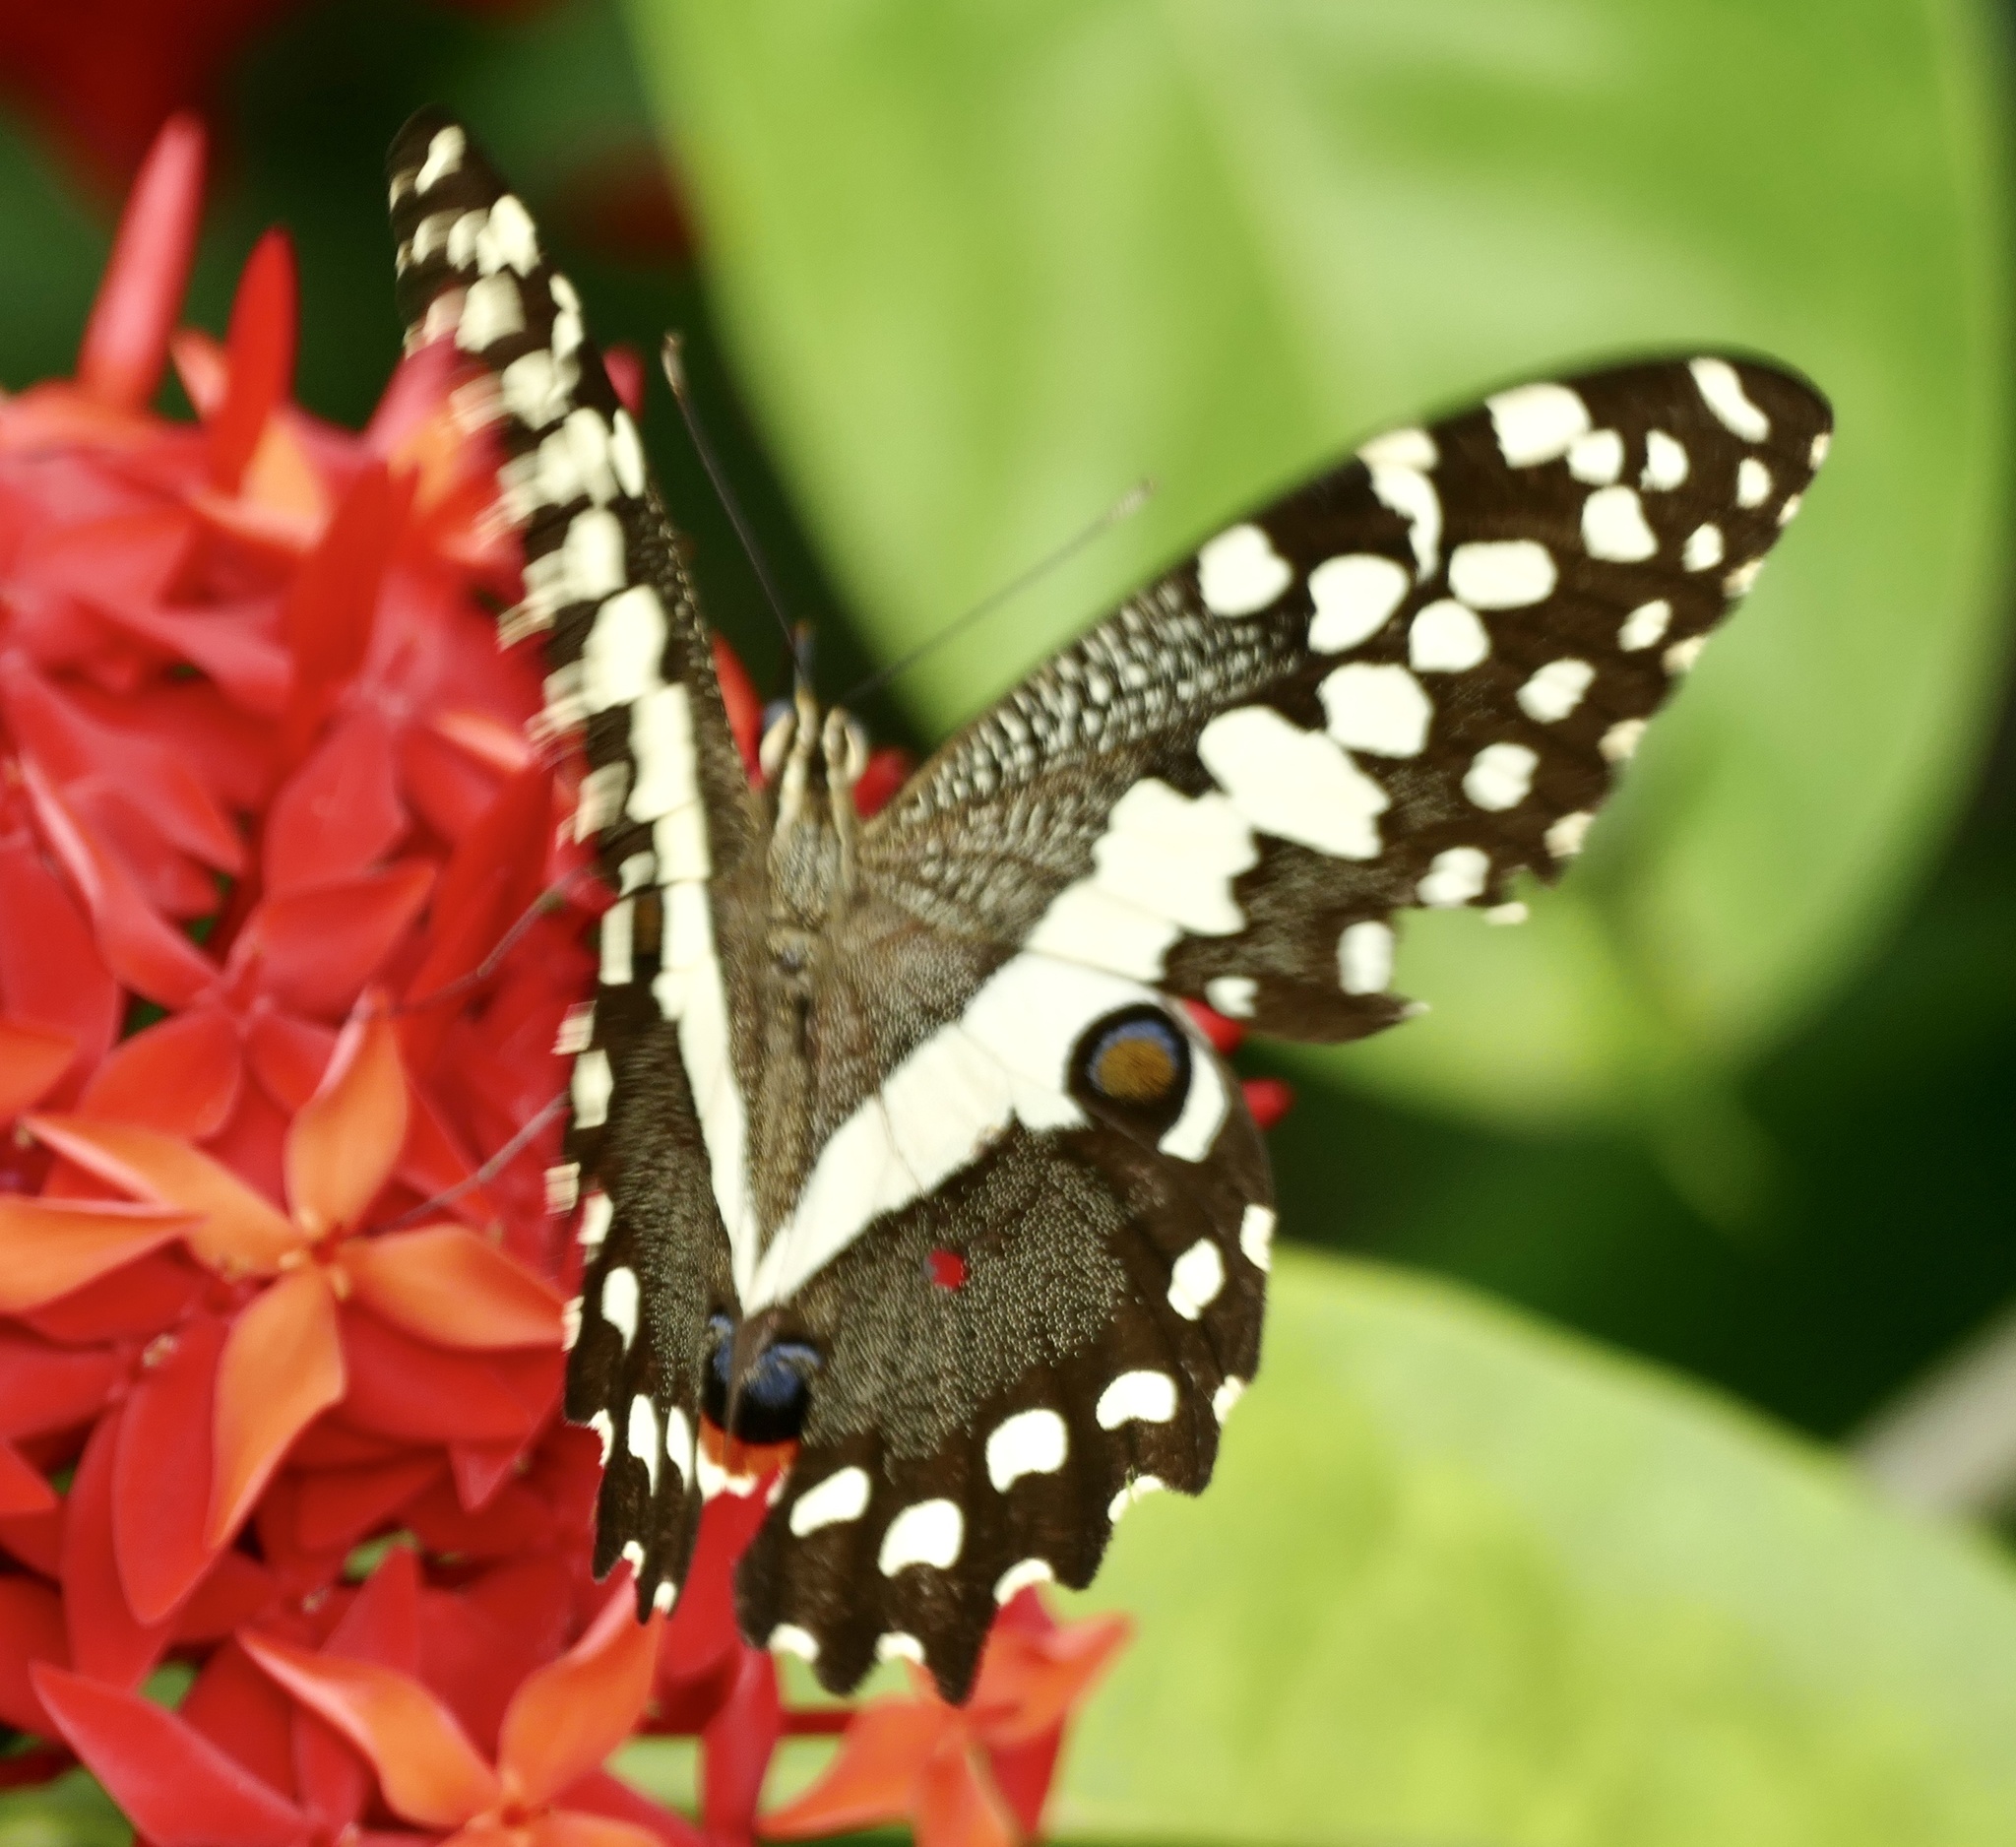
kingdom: Animalia
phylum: Arthropoda
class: Insecta
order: Lepidoptera
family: Papilionidae
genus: Papilio
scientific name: Papilio demodocus
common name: Christmas butterfly
